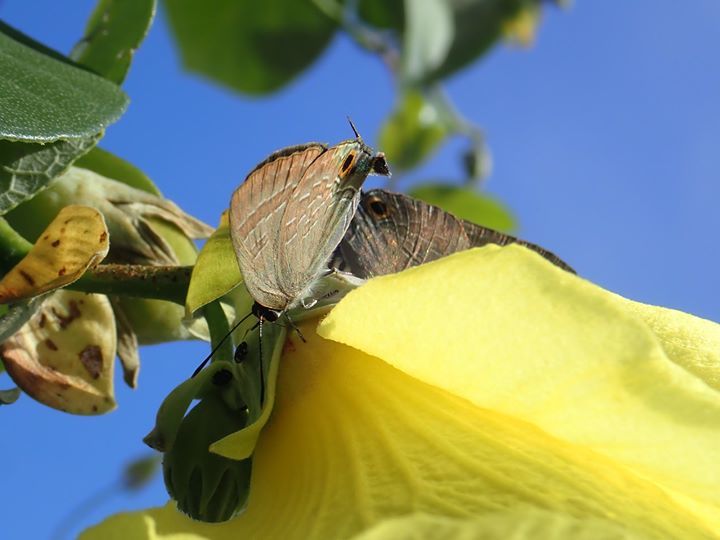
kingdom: Animalia
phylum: Arthropoda
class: Insecta
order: Lepidoptera
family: Lycaenidae
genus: Deudorix
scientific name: Deudorix epijarbas
